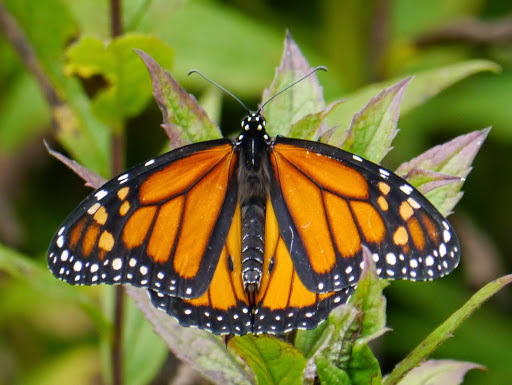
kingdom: Animalia
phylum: Arthropoda
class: Insecta
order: Lepidoptera
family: Nymphalidae
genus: Danaus
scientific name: Danaus plexippus
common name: Monarch
